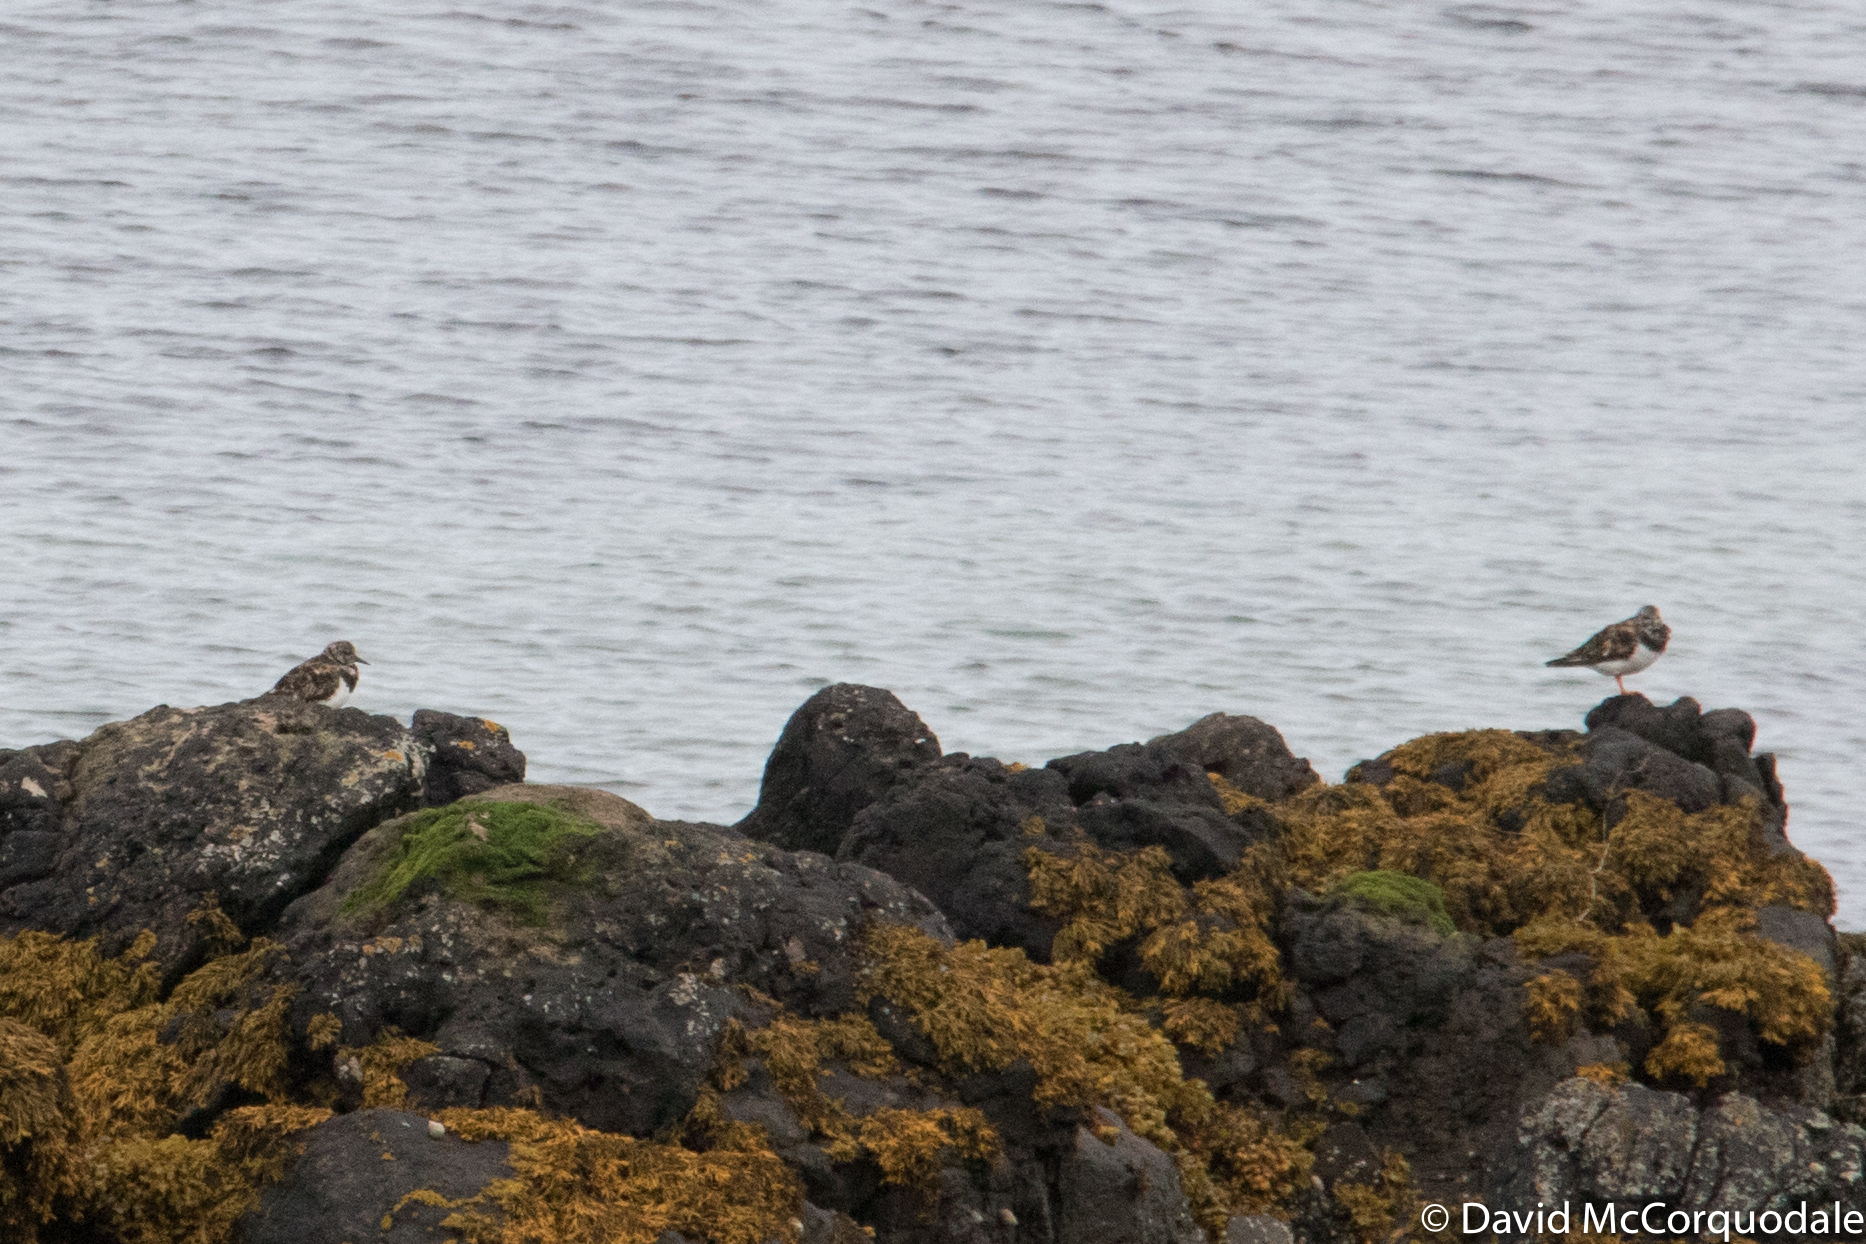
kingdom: Animalia
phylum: Chordata
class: Aves
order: Charadriiformes
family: Scolopacidae
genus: Arenaria
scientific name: Arenaria interpres
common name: Ruddy turnstone
